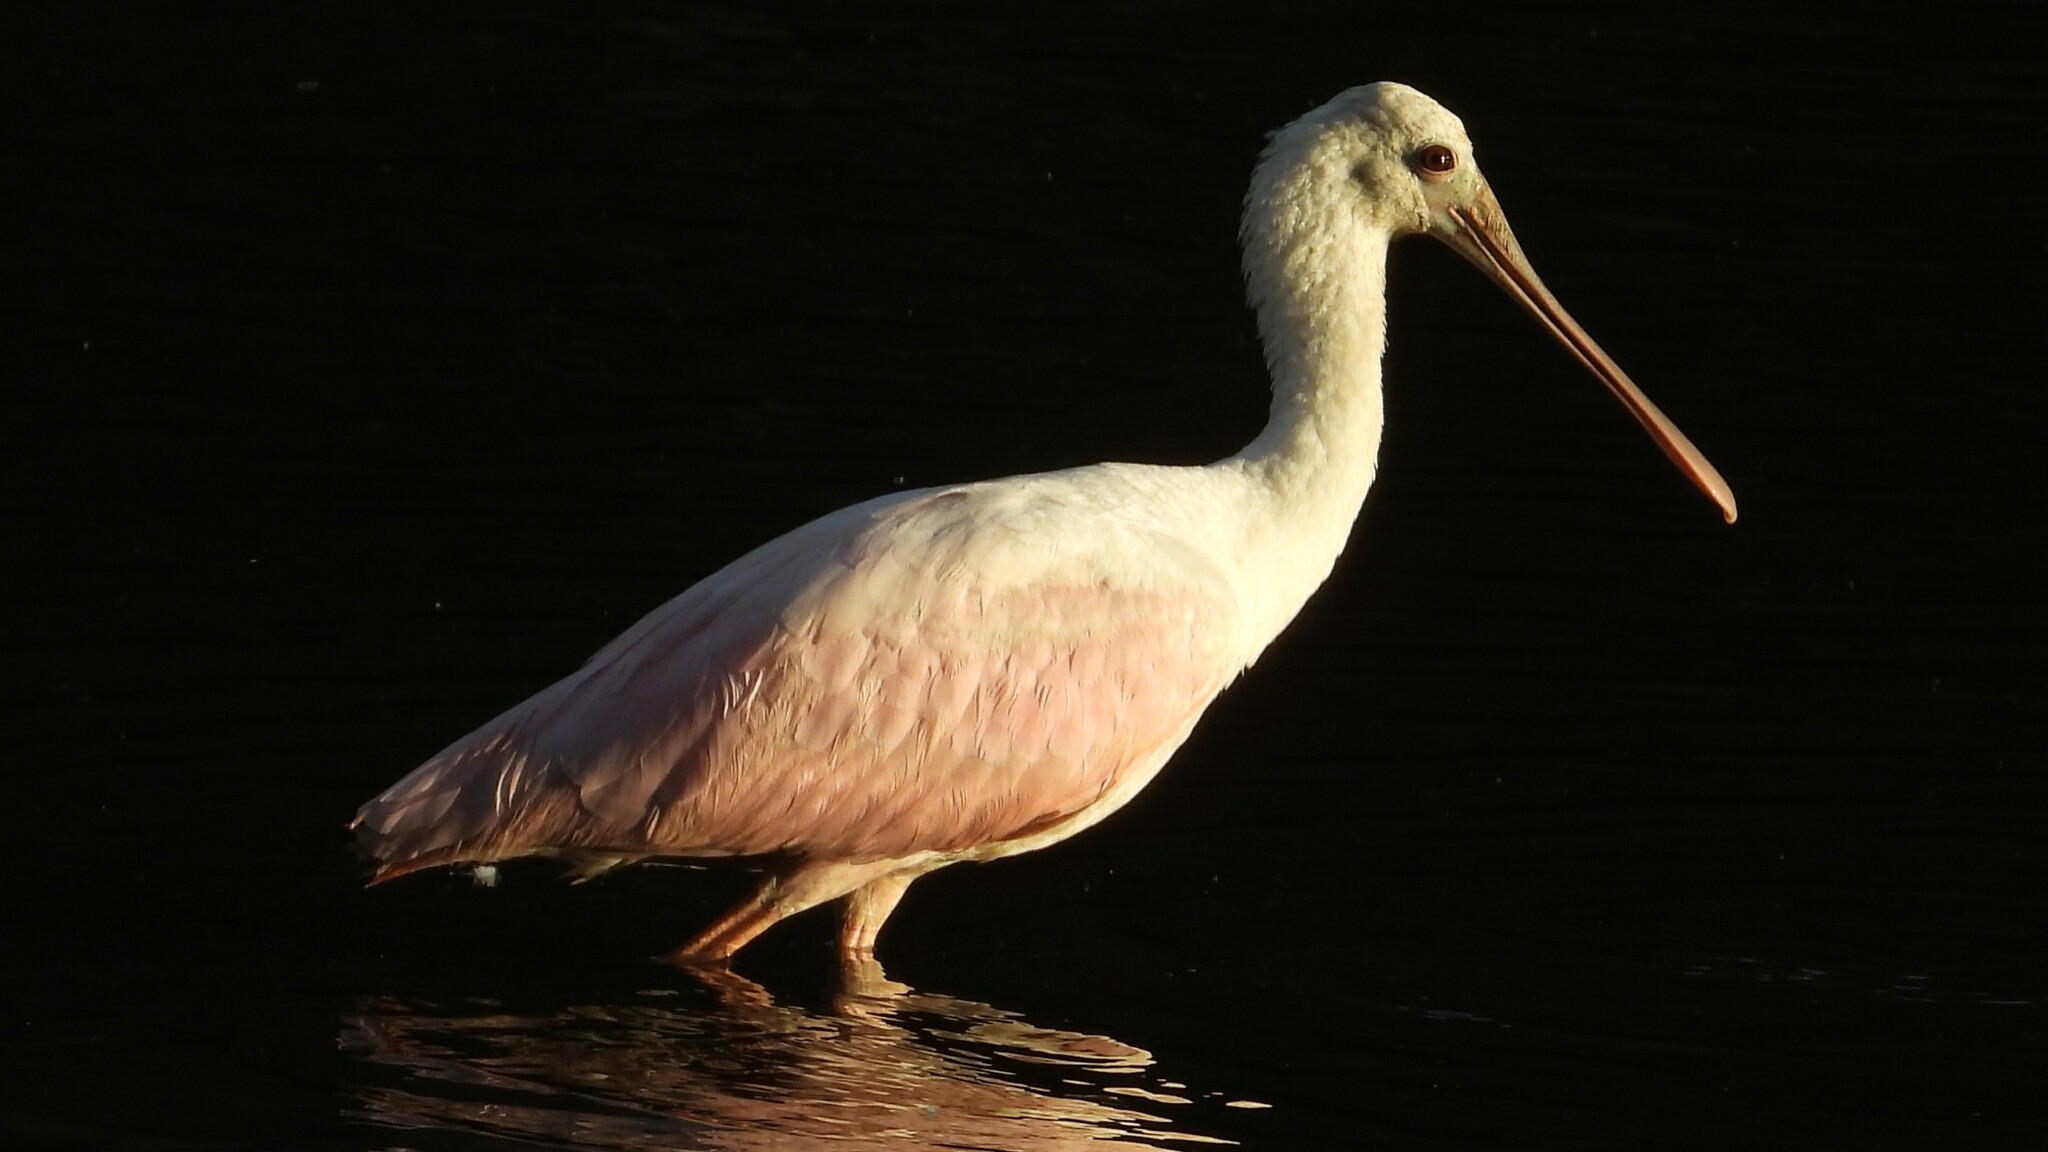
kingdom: Animalia
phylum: Chordata
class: Aves
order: Pelecaniformes
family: Threskiornithidae
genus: Platalea
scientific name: Platalea ajaja
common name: Roseate spoonbill
